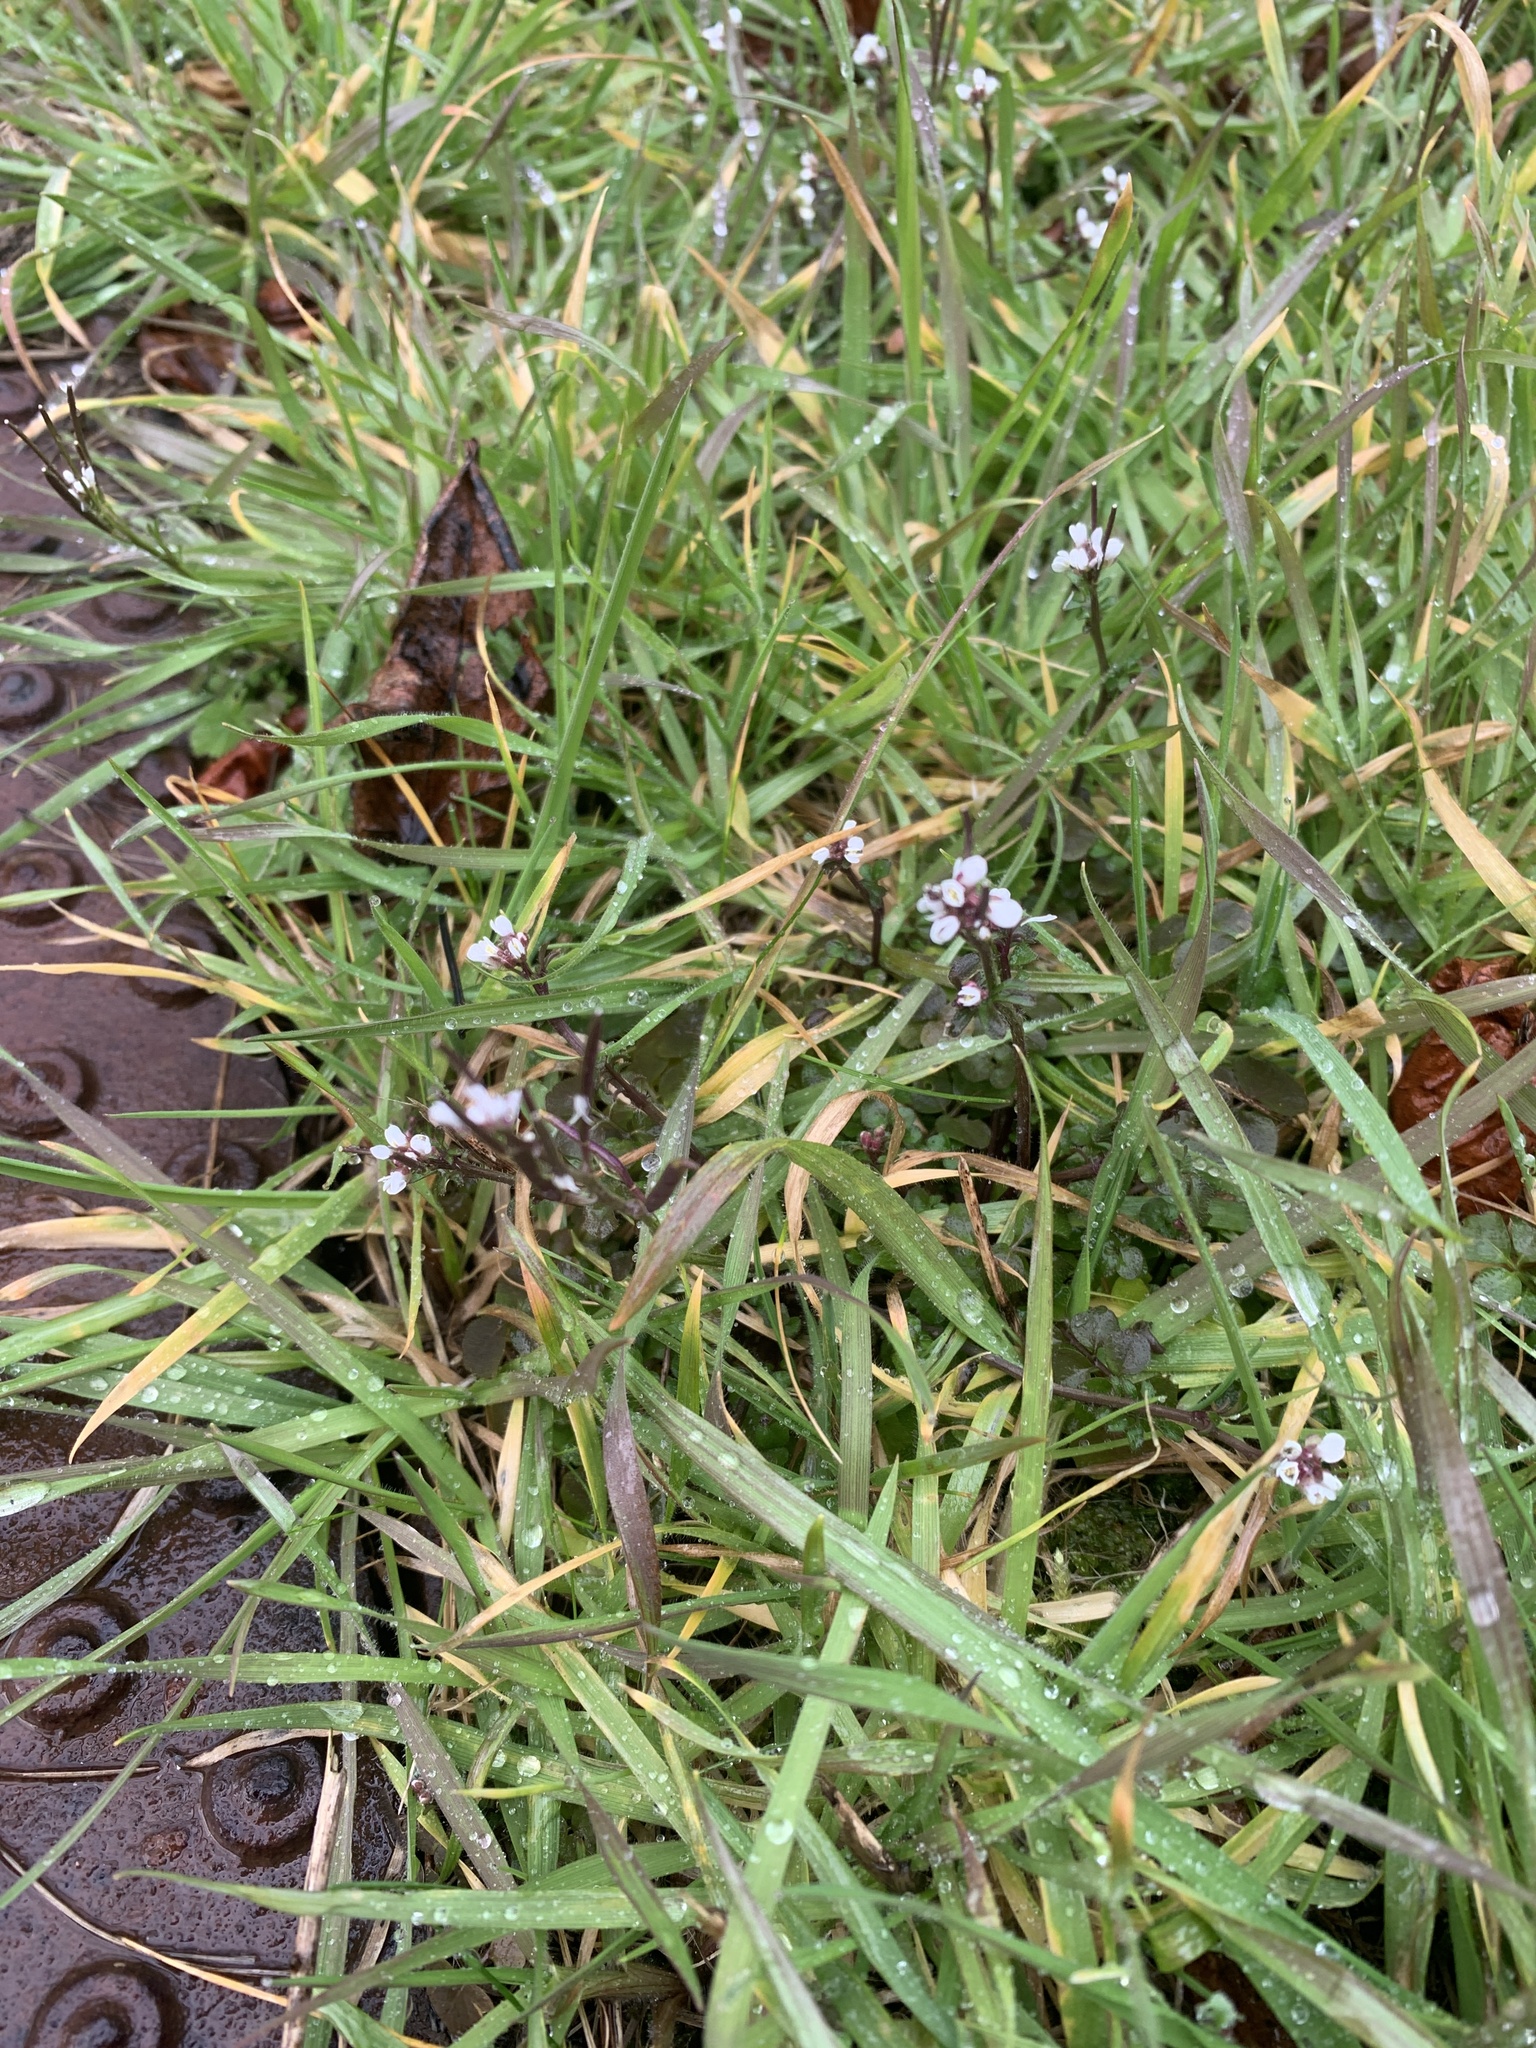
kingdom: Plantae
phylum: Tracheophyta
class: Magnoliopsida
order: Brassicales
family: Brassicaceae
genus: Cardamine
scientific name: Cardamine hirsuta
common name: Hairy bittercress
